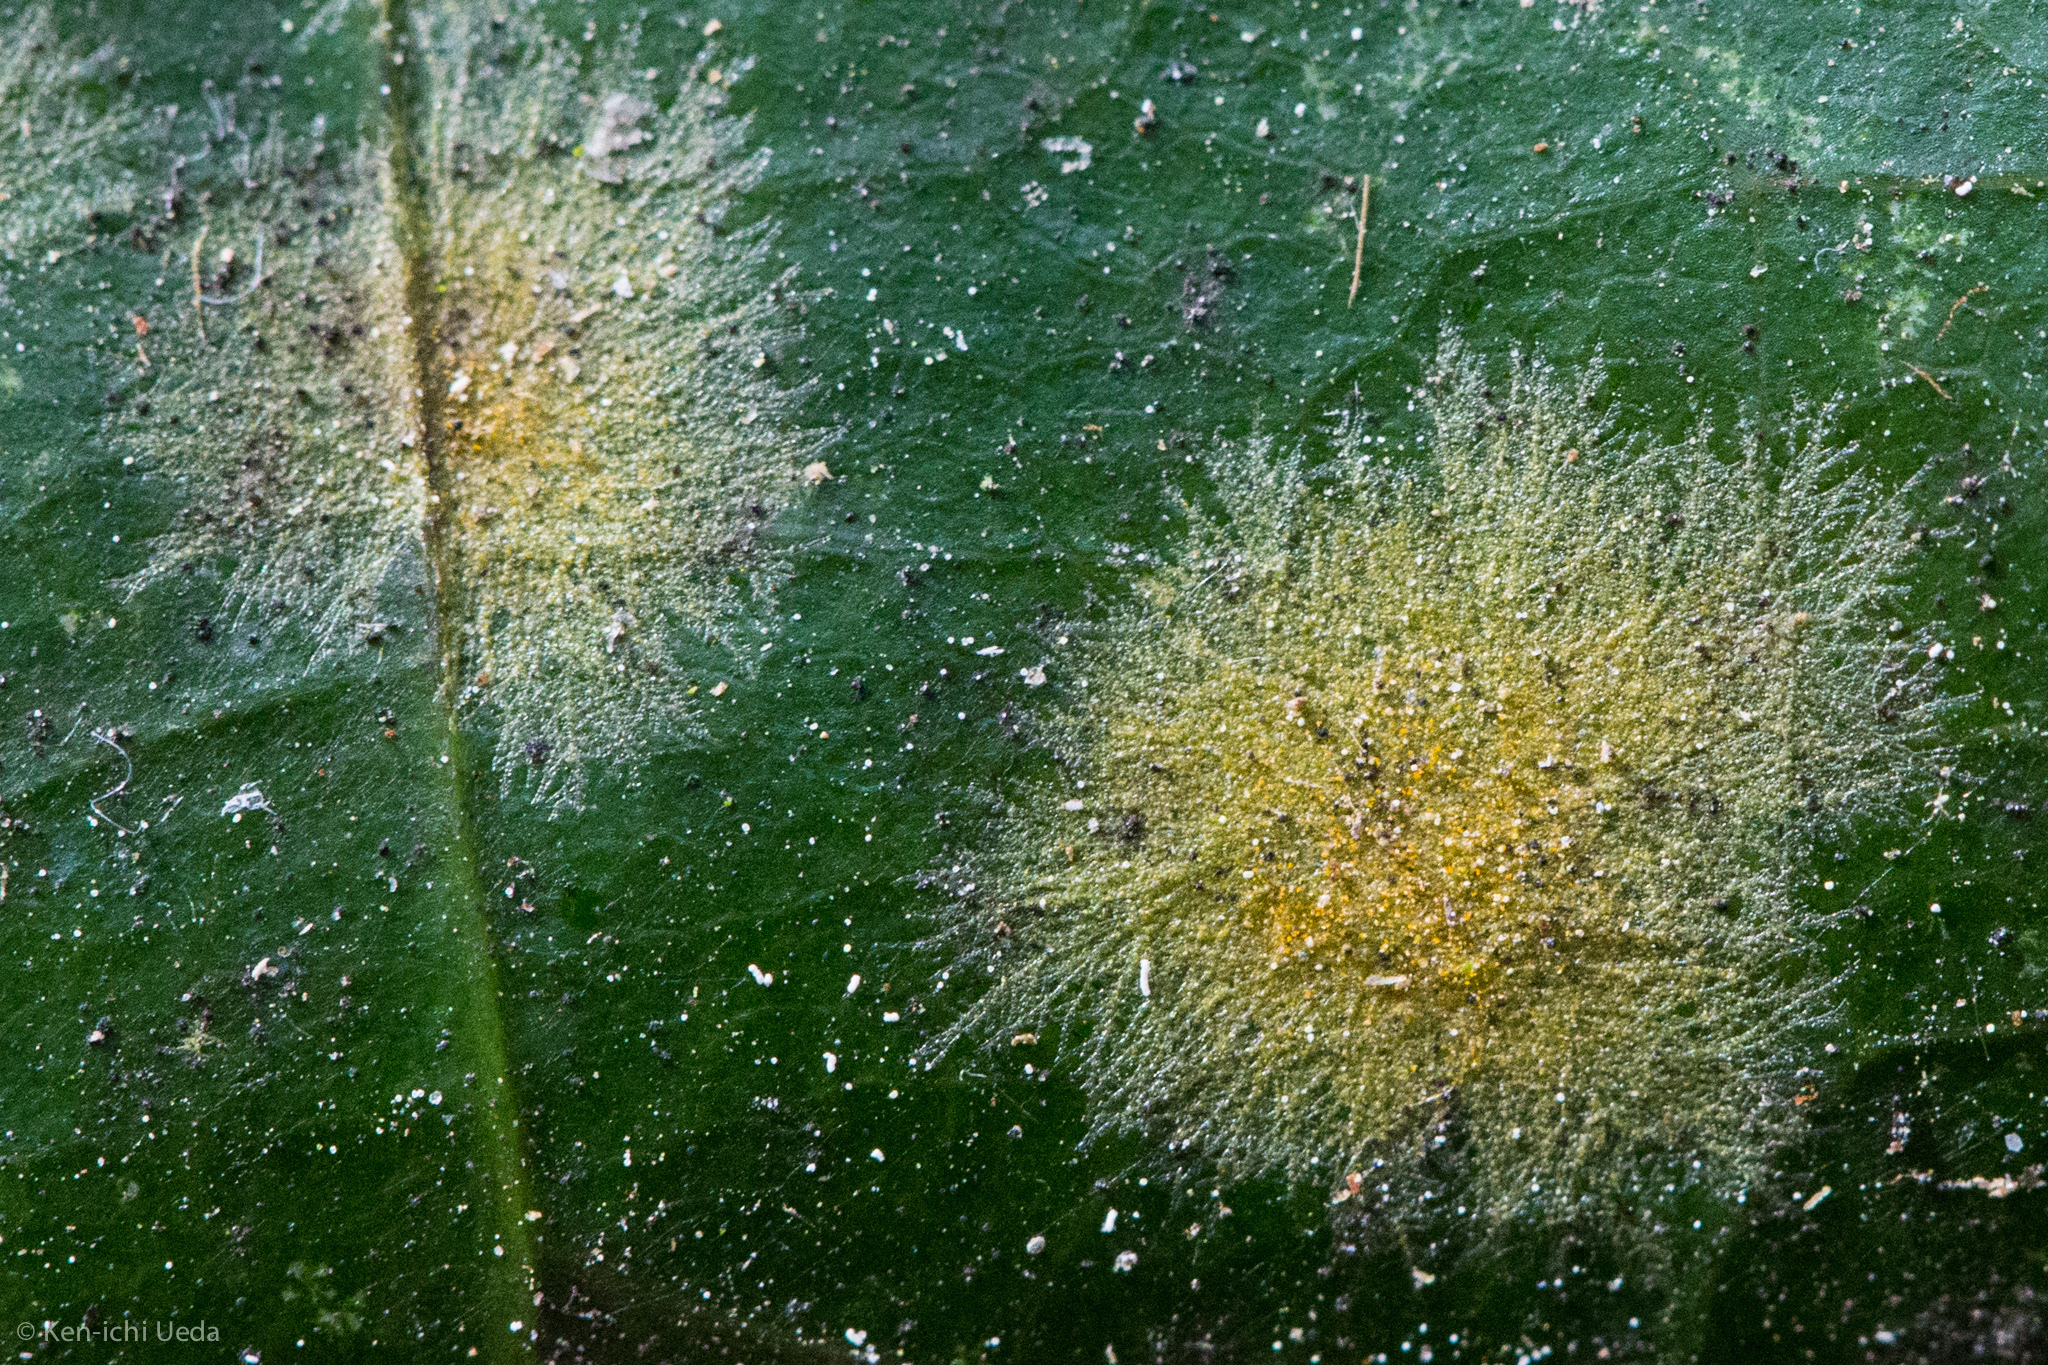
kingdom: Plantae
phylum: Chlorophyta
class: Ulvophyceae
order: Trentepohliales
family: Trentepohliaceae
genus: Cephaleuros
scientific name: Cephaleuros
